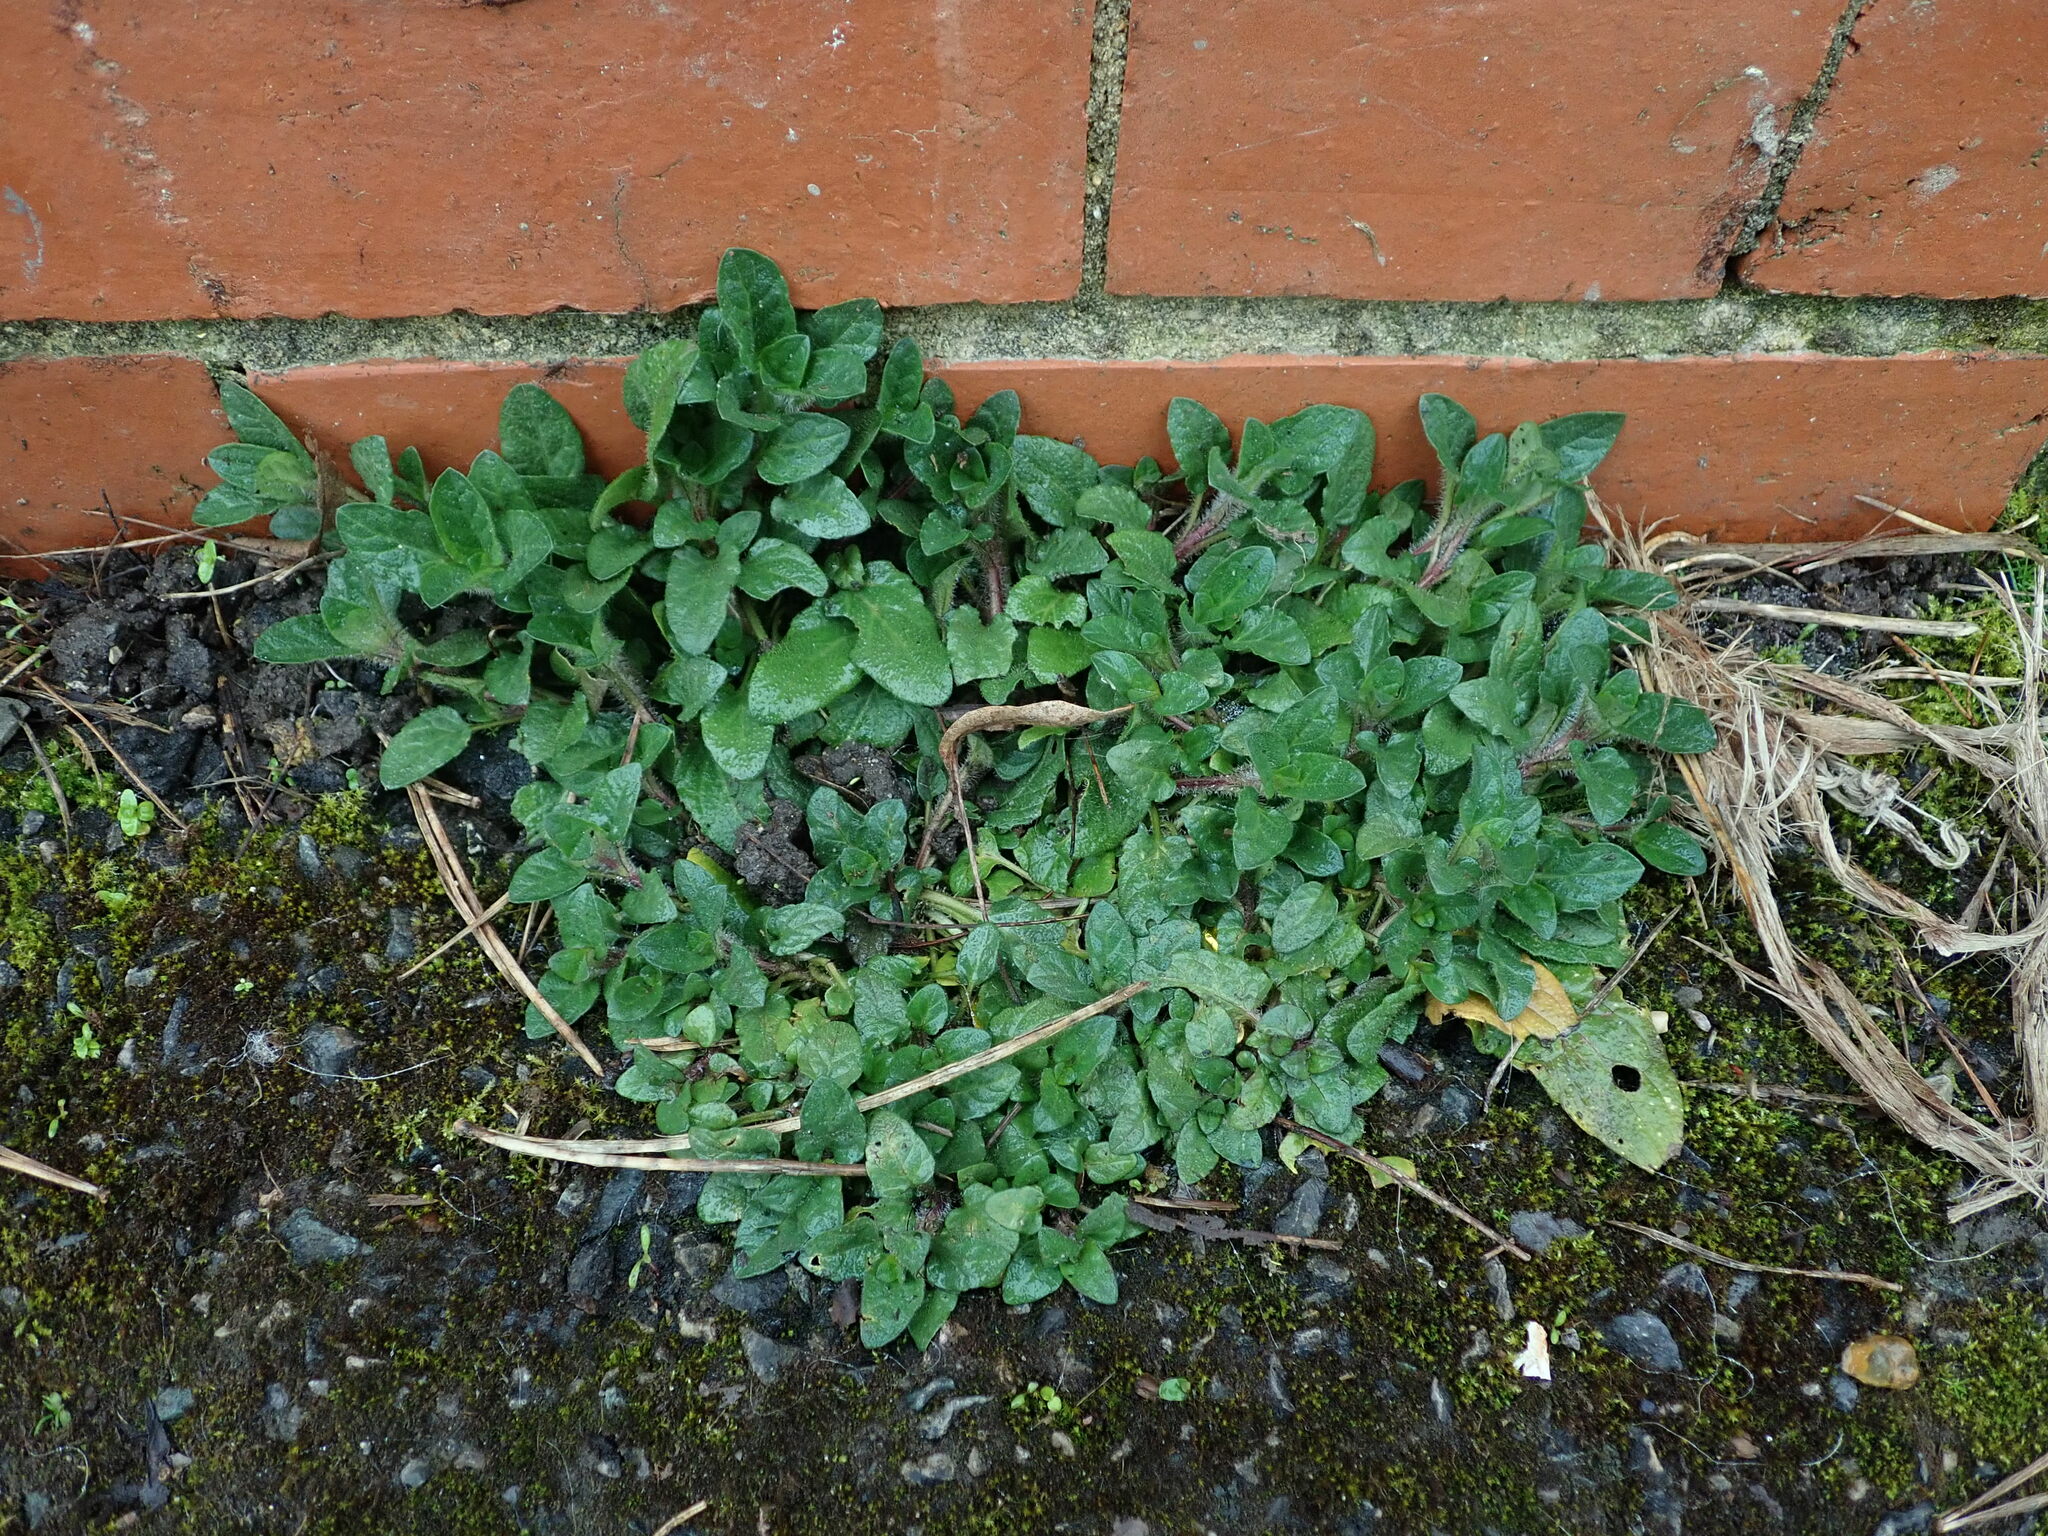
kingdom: Plantae
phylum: Tracheophyta
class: Magnoliopsida
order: Lamiales
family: Lamiaceae
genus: Prunella
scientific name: Prunella vulgaris
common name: Heal-all
